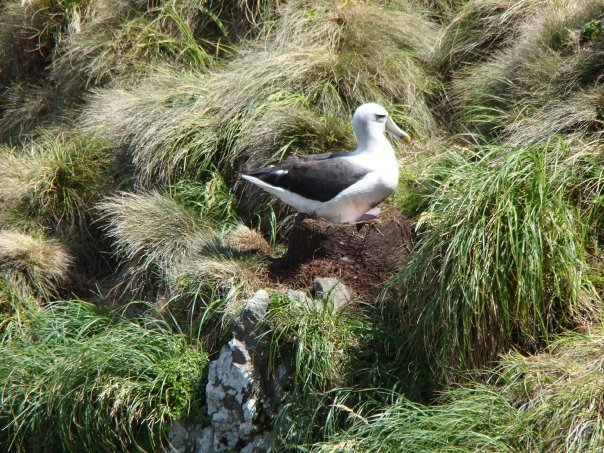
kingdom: Animalia
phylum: Chordata
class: Aves
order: Procellariiformes
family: Diomedeidae
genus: Thalassarche
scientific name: Thalassarche cauta
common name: Shy albatross
